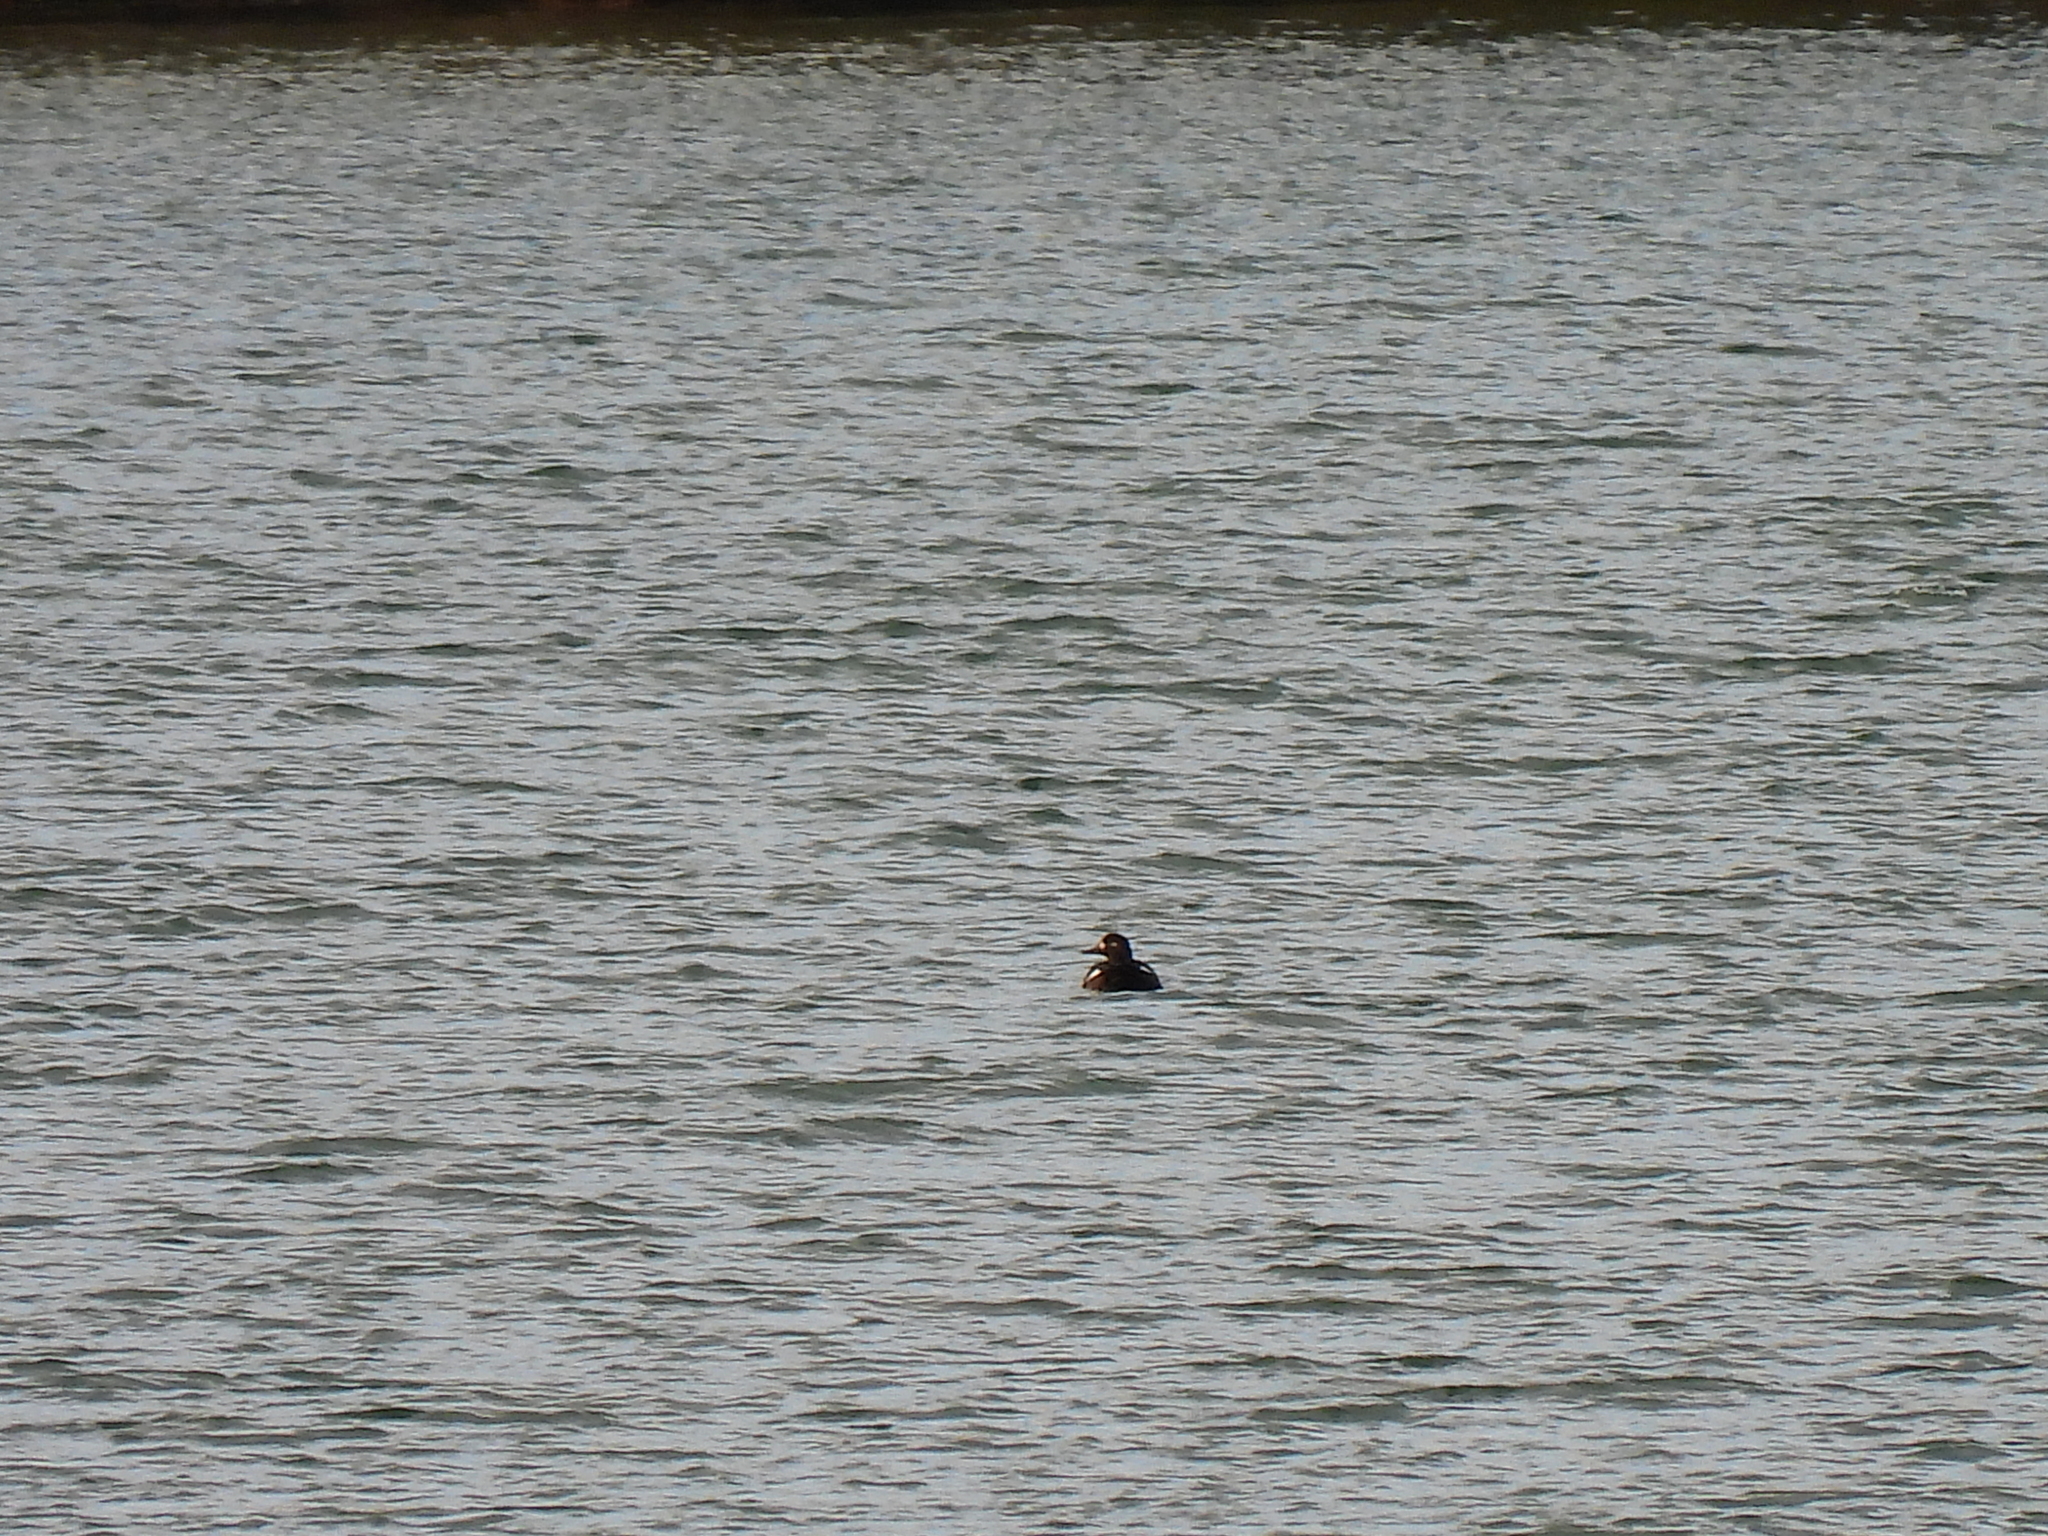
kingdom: Animalia
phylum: Chordata
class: Aves
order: Anseriformes
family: Anatidae
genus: Melanitta
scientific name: Melanitta fusca
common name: Velvet scoter
